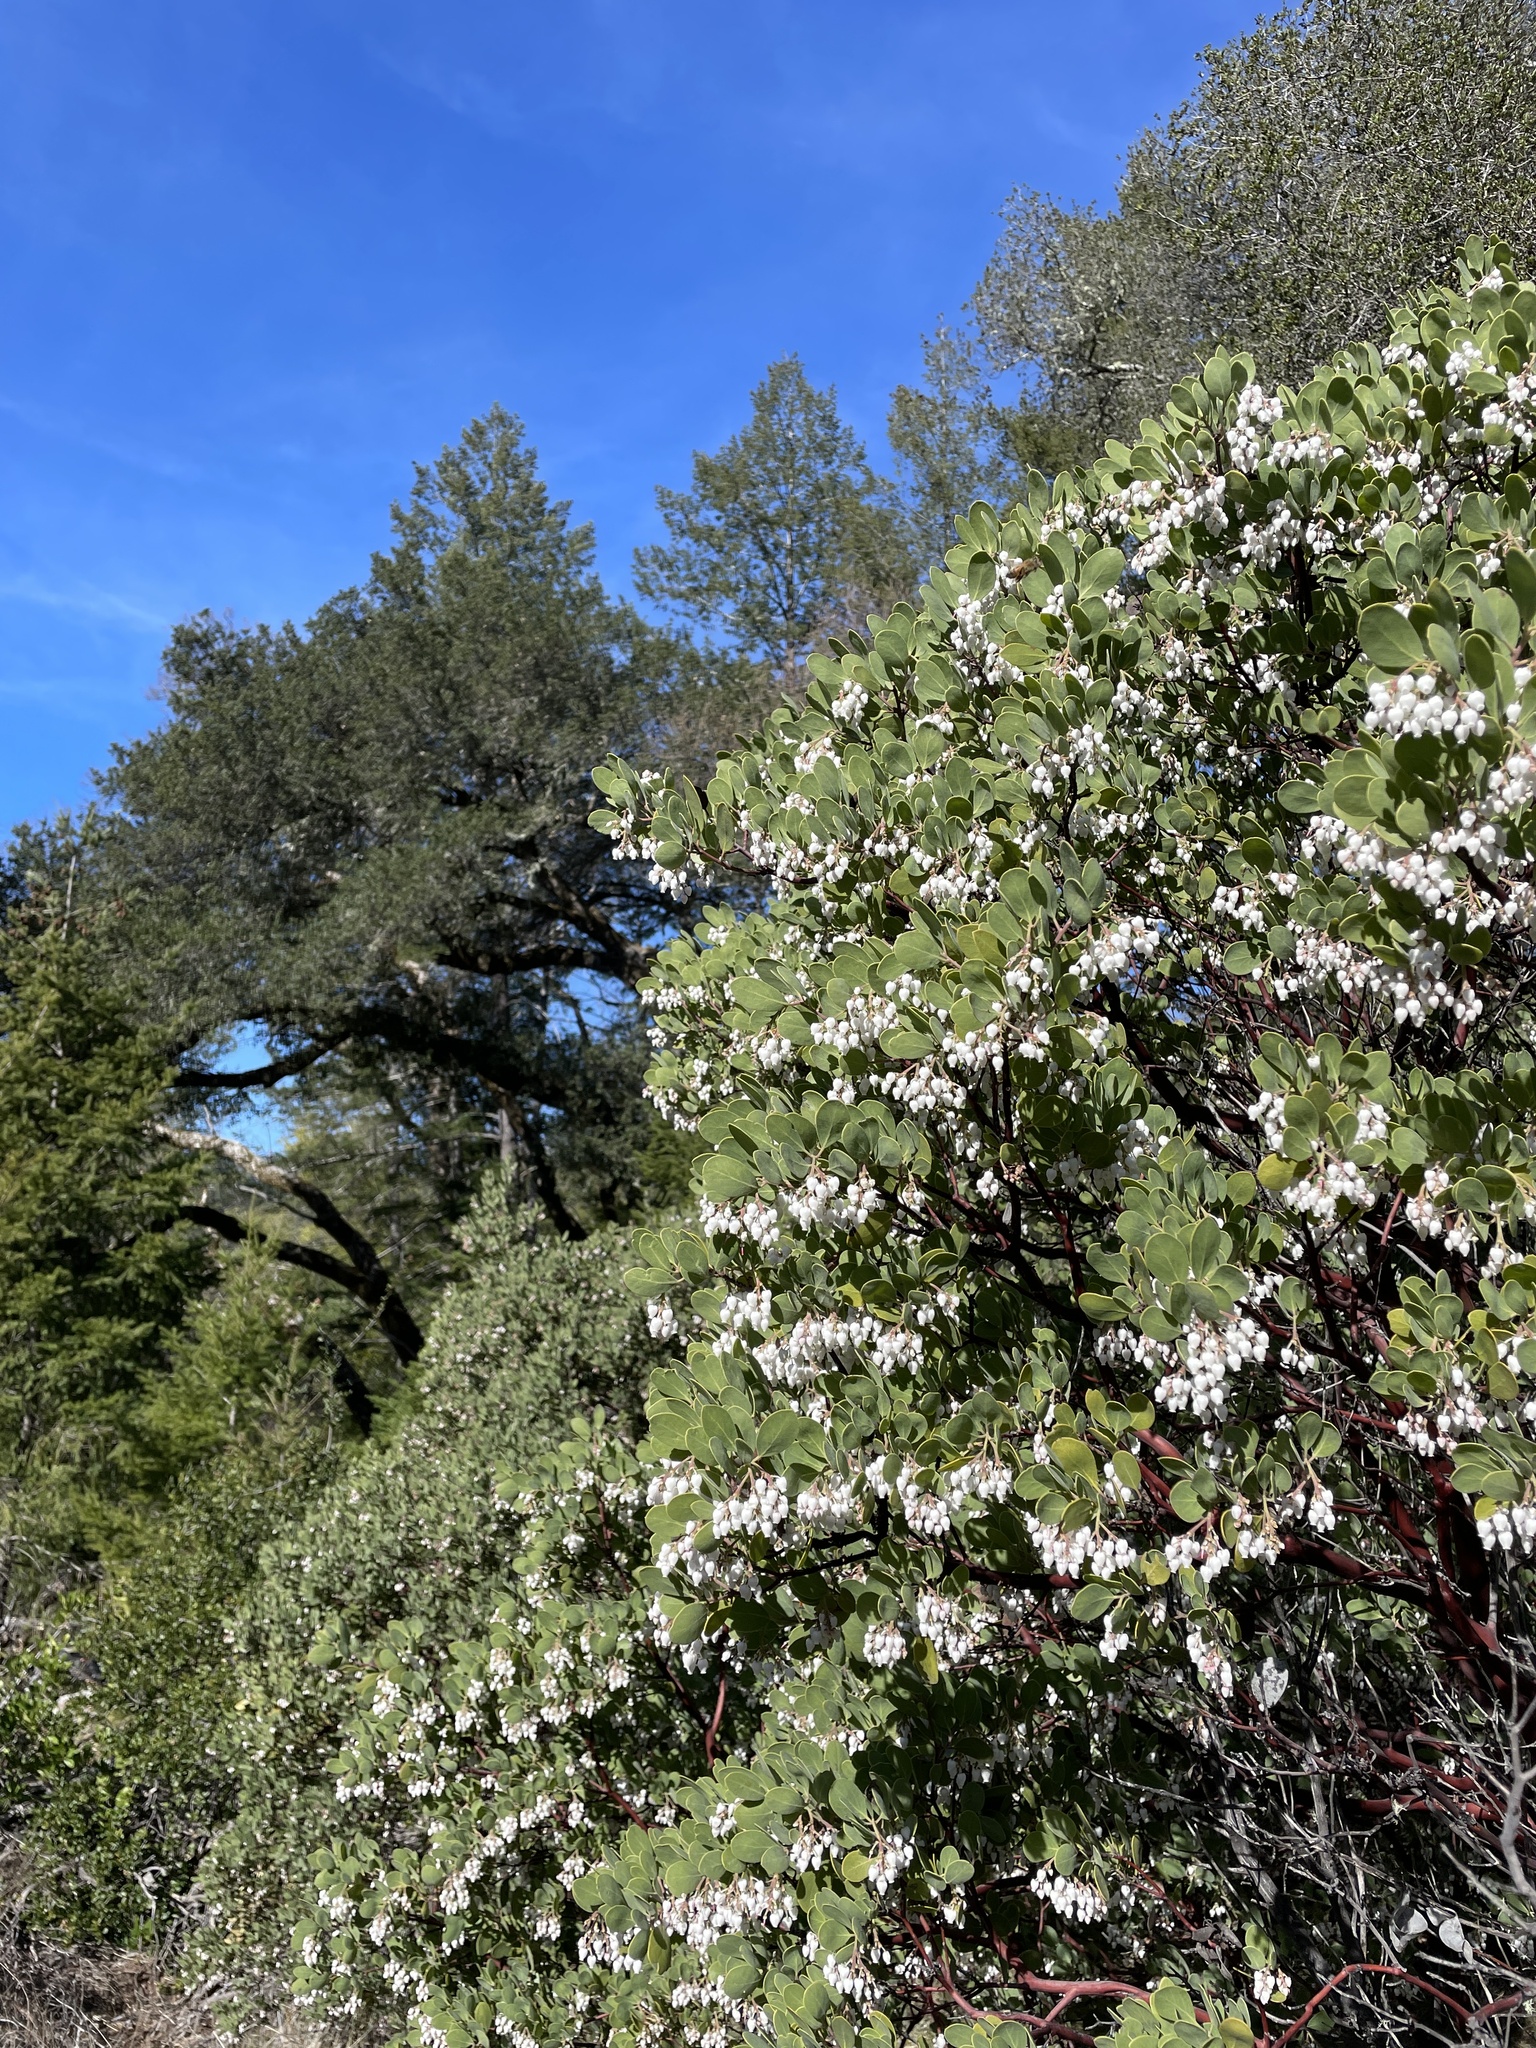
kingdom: Plantae
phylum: Tracheophyta
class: Magnoliopsida
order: Ericales
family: Ericaceae
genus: Arctostaphylos
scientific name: Arctostaphylos manzanita
